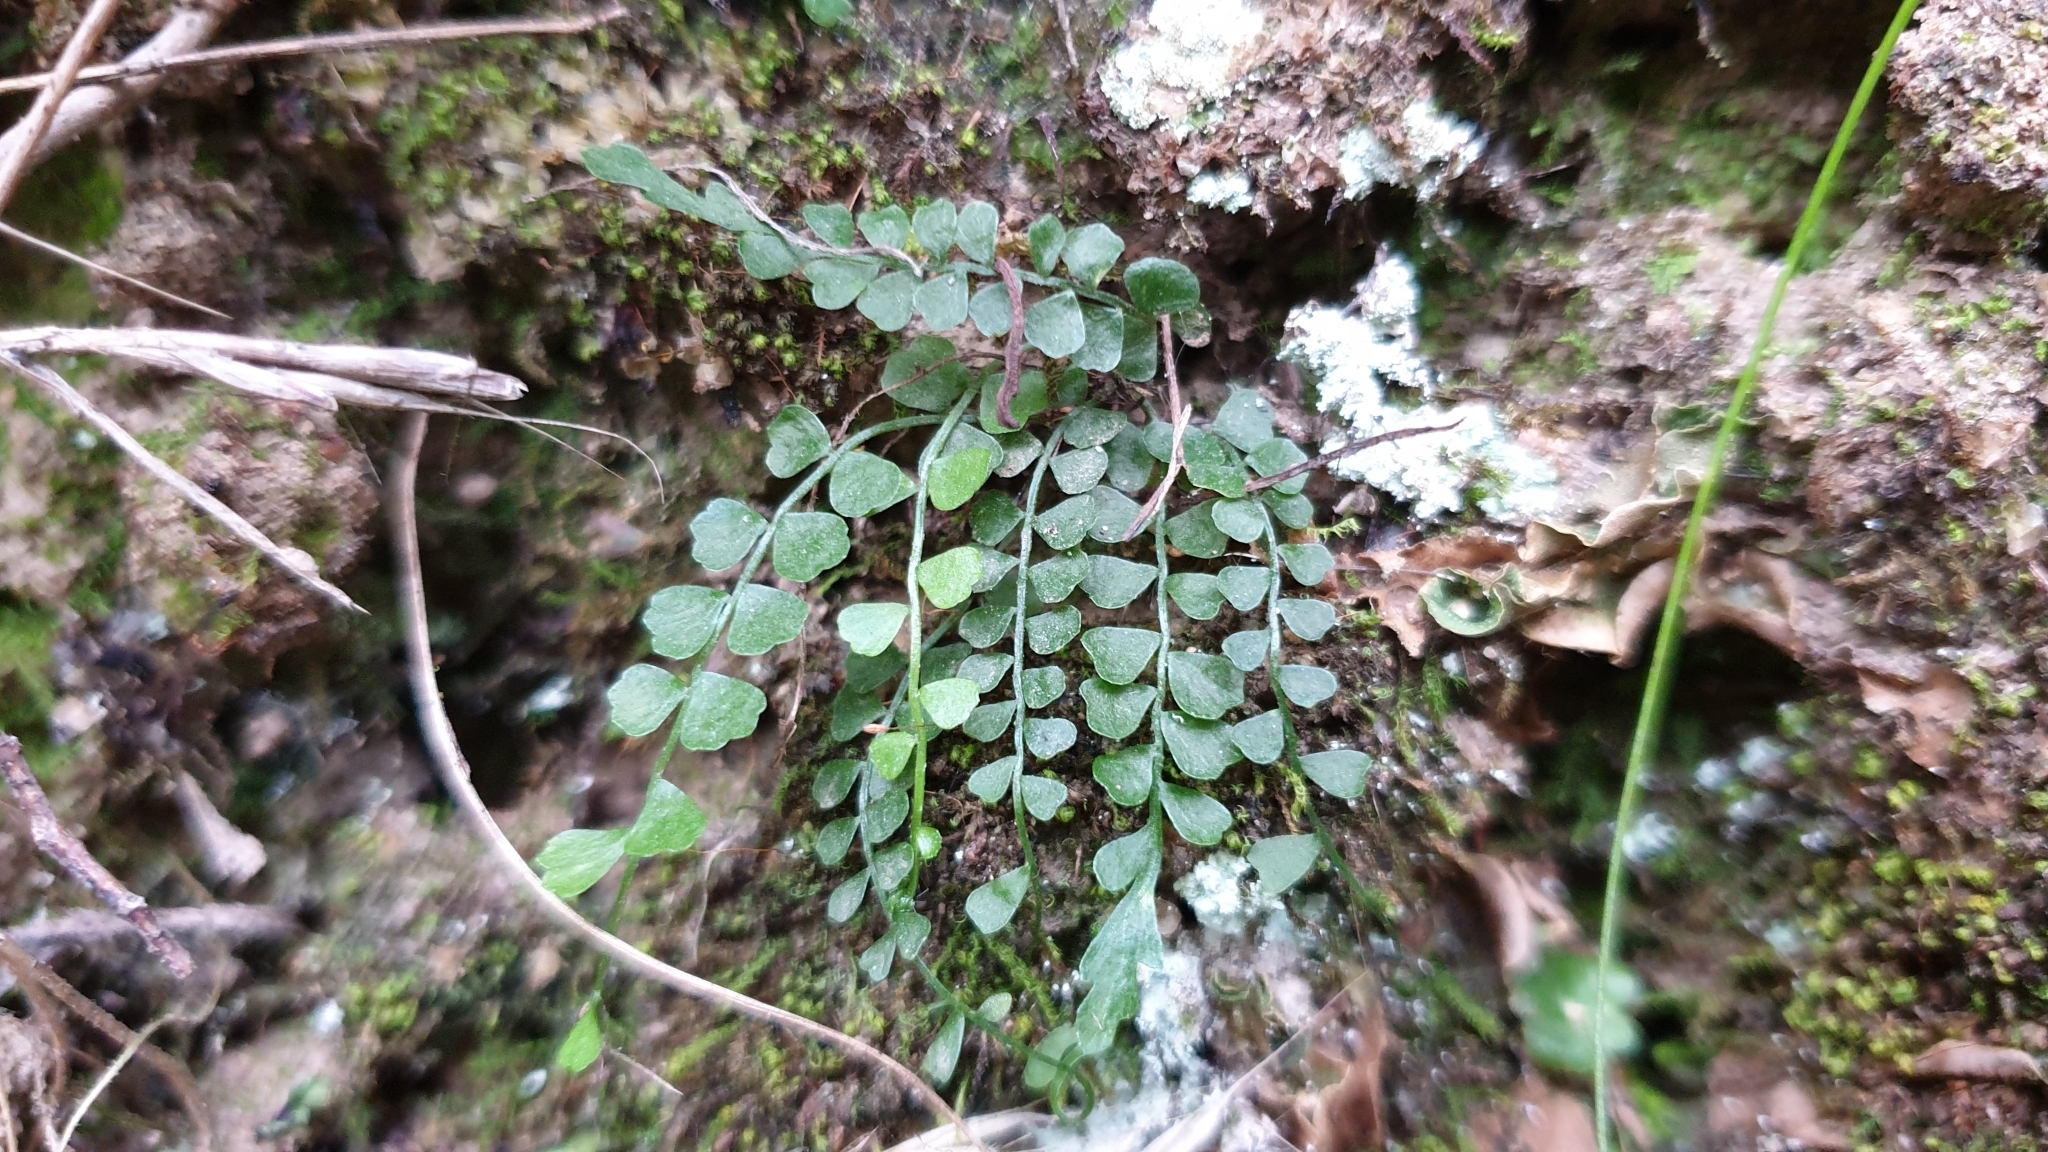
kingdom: Plantae
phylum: Tracheophyta
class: Polypodiopsida
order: Polypodiales
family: Aspleniaceae
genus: Asplenium
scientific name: Asplenium flabellifolium
